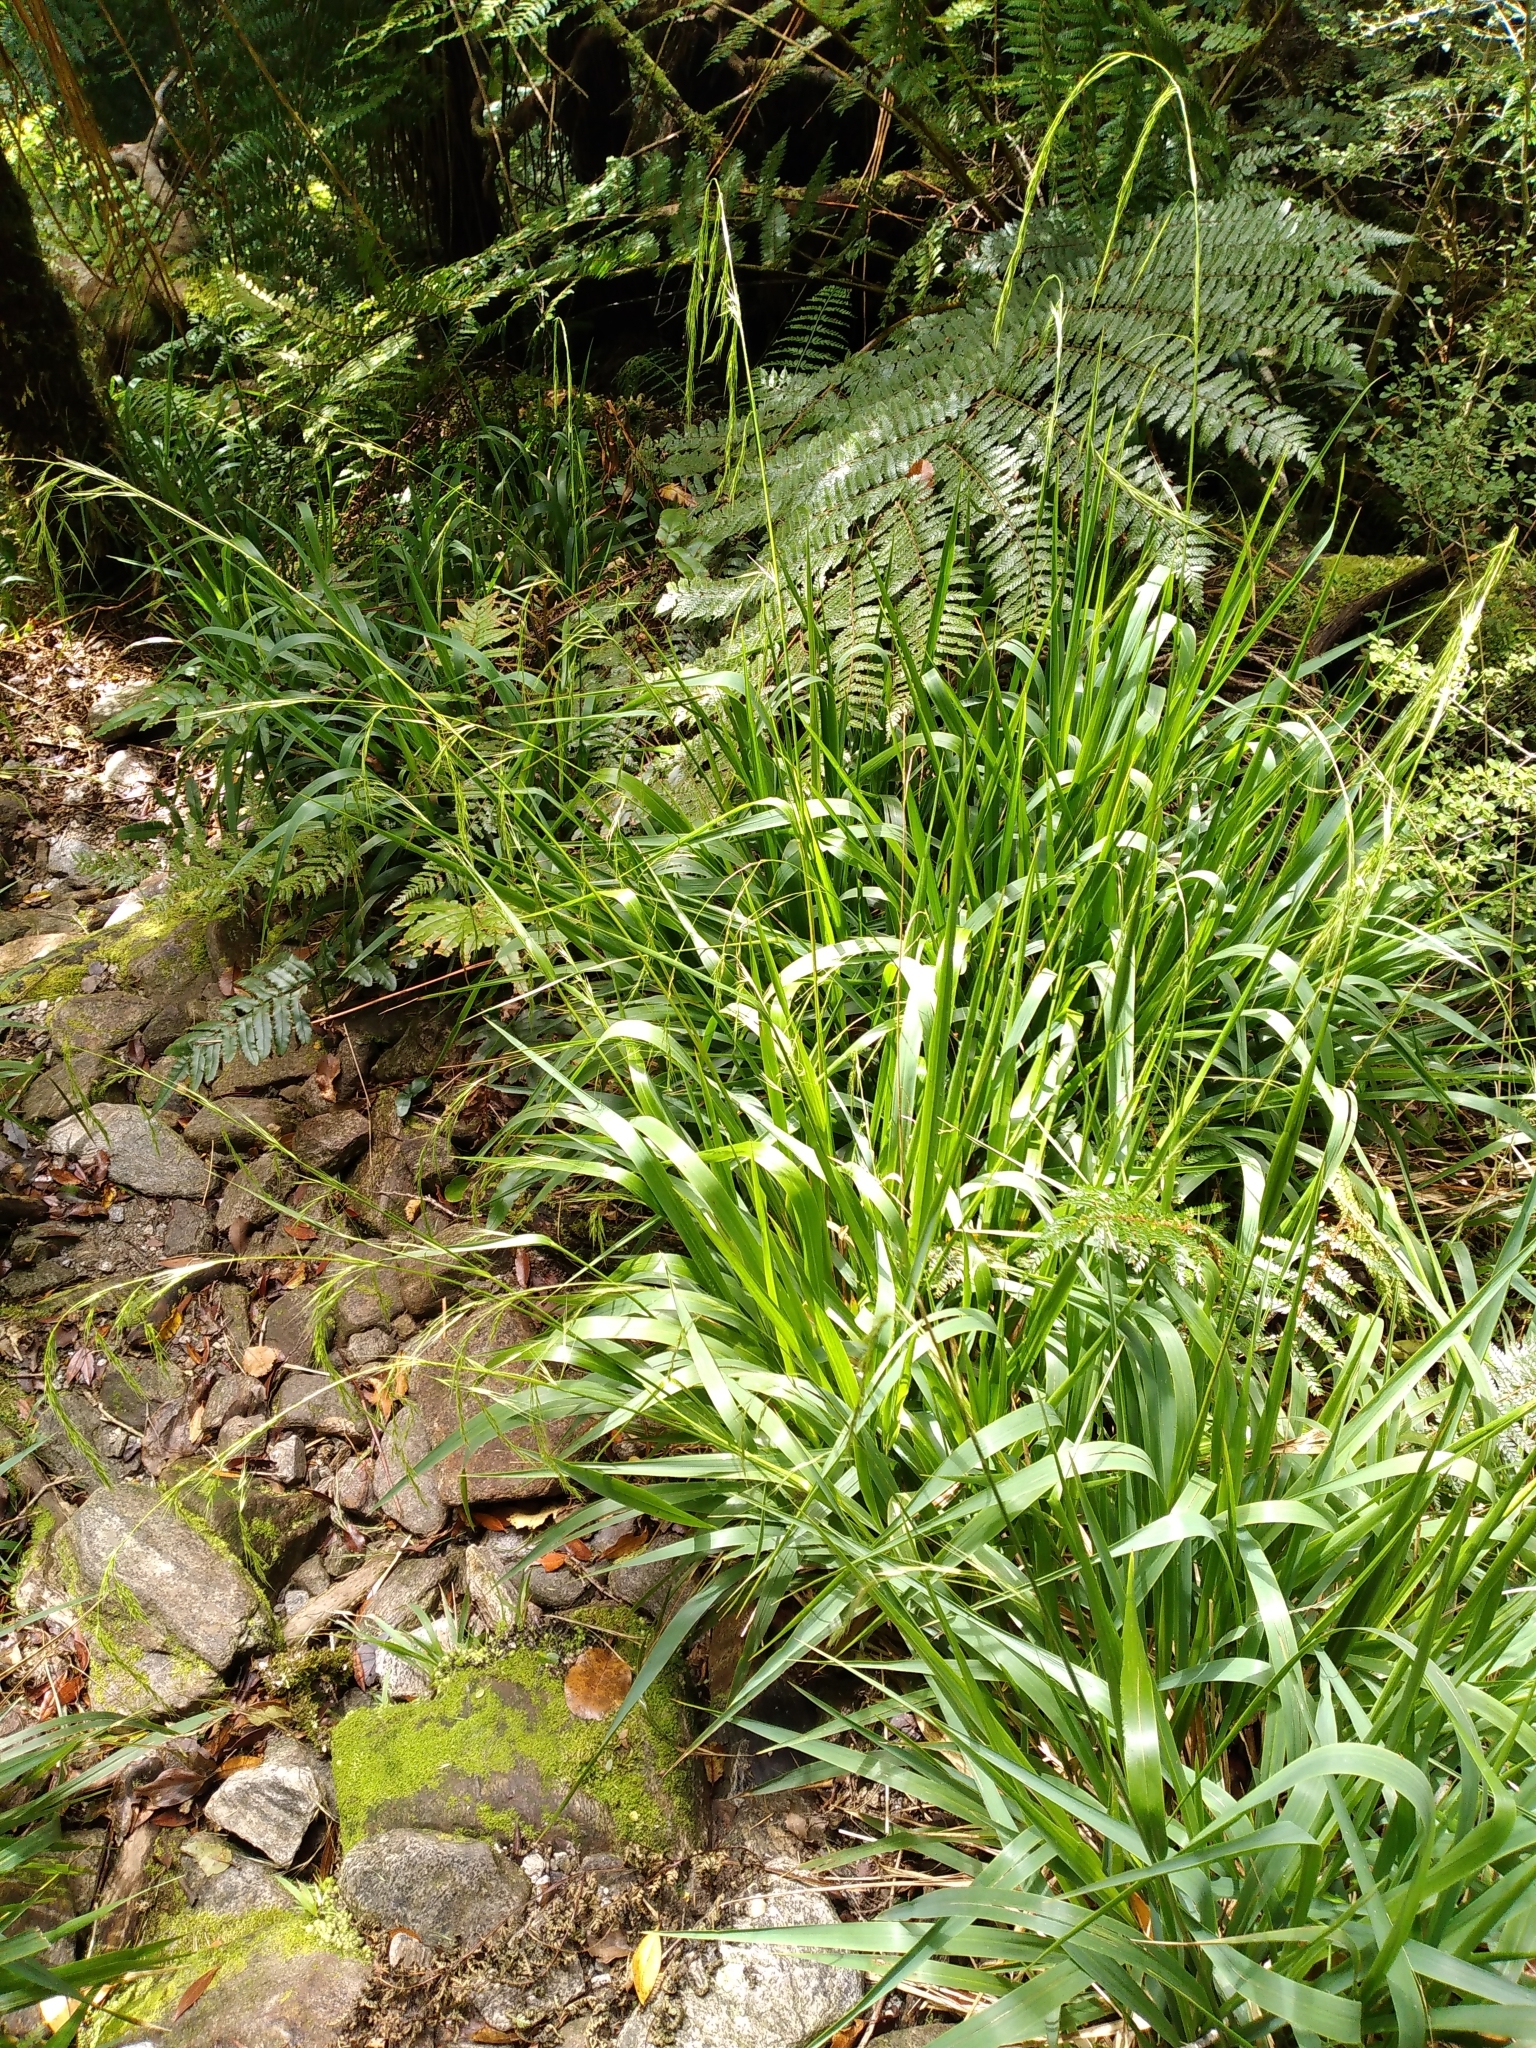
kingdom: Plantae
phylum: Tracheophyta
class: Liliopsida
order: Poales
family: Poaceae
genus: Ehrharta
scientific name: Ehrharta diplax
